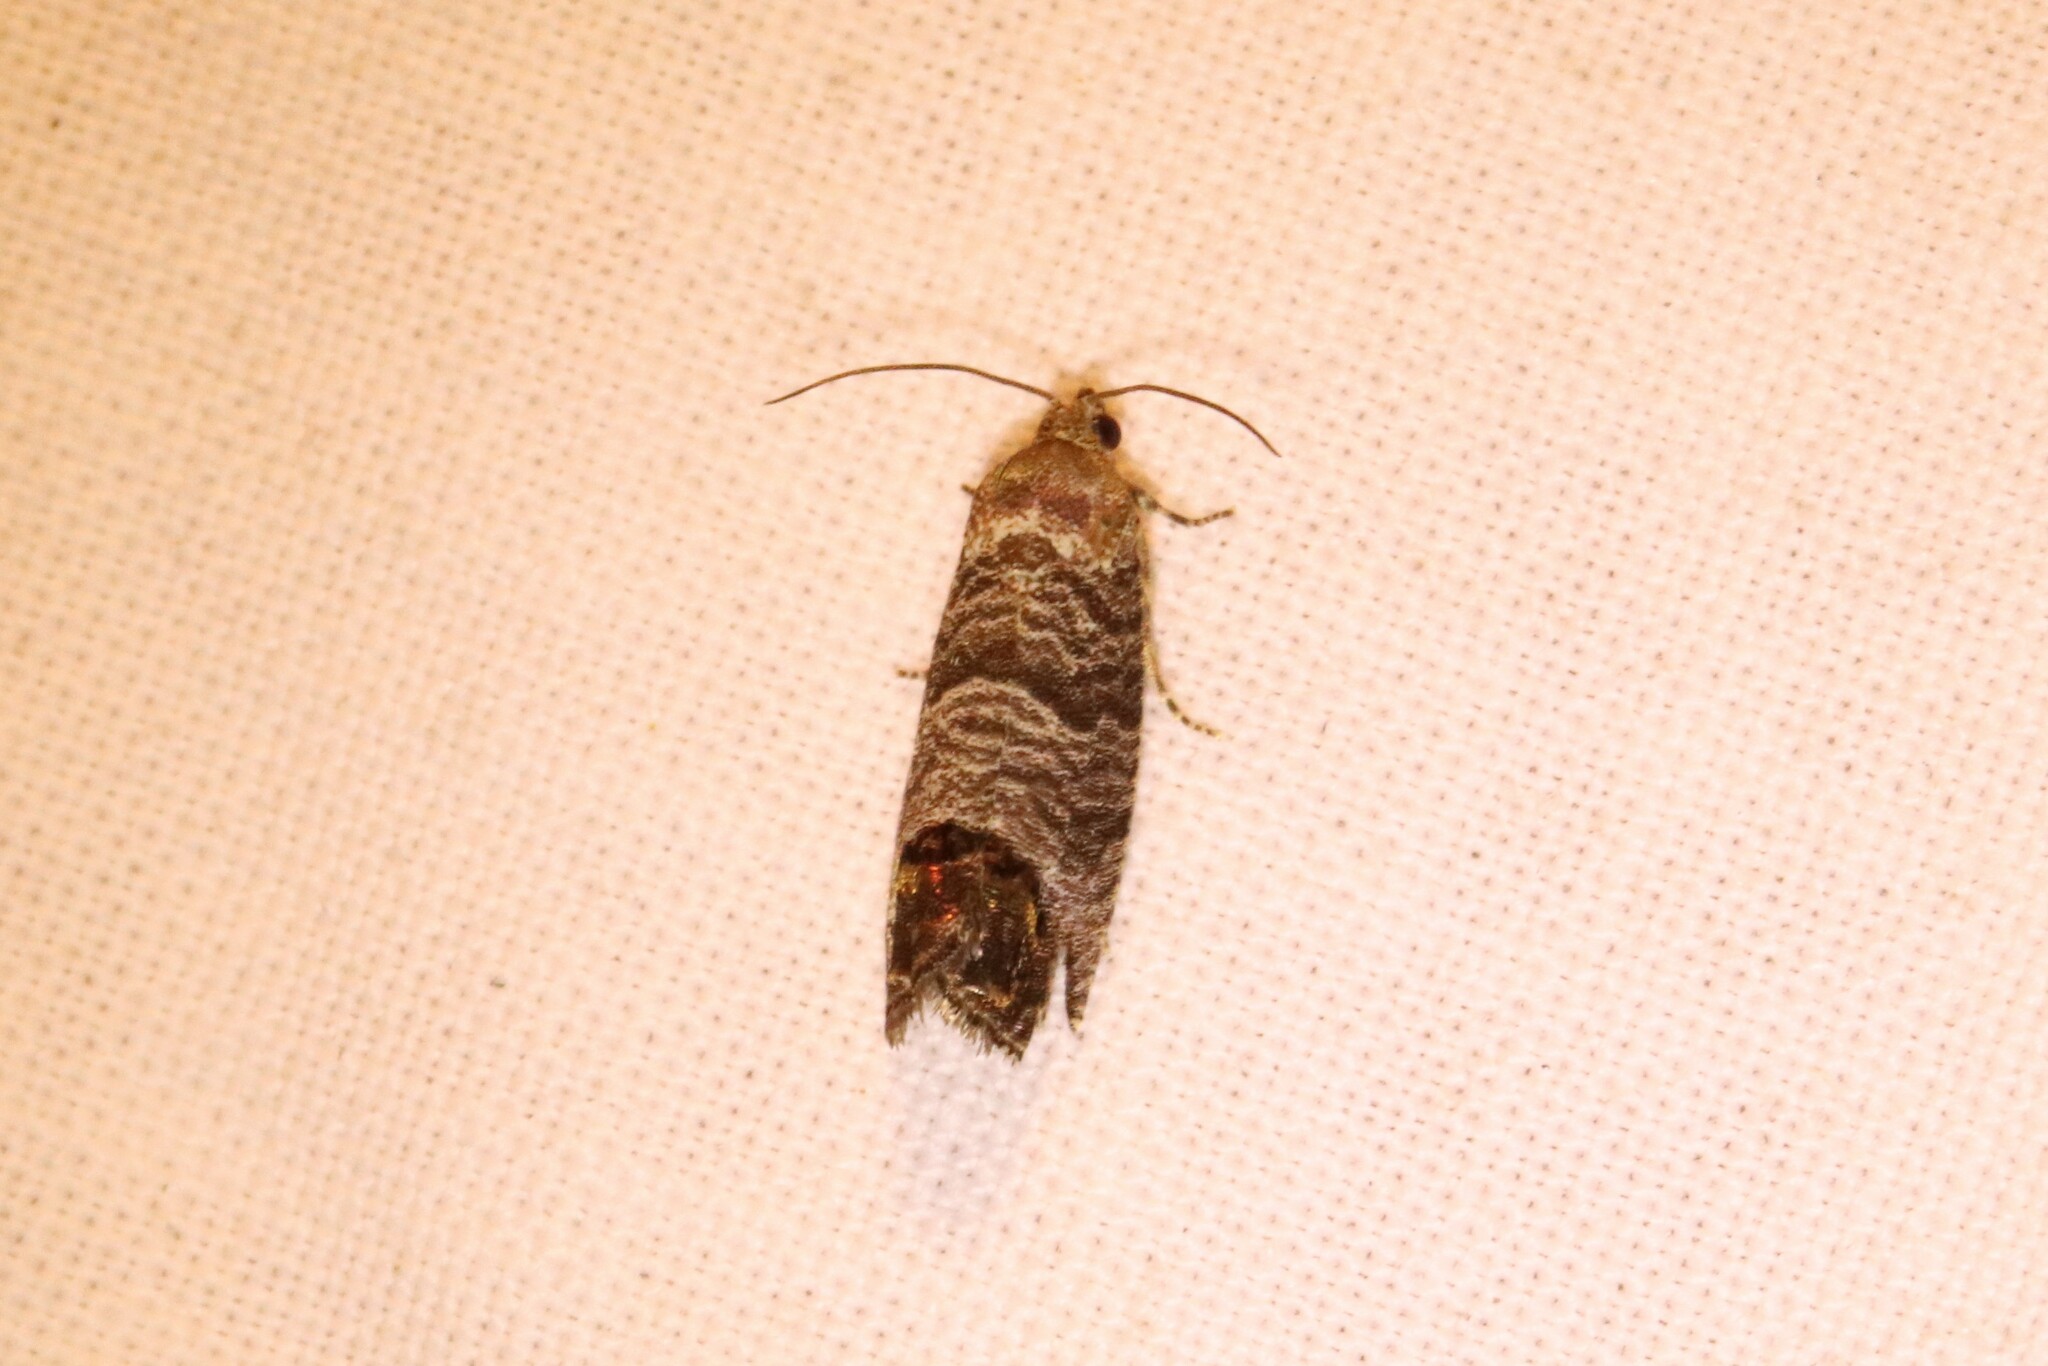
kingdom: Animalia
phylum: Arthropoda
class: Insecta
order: Lepidoptera
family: Tortricidae
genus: Cydia
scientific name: Cydia pomonella
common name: Codling moth
